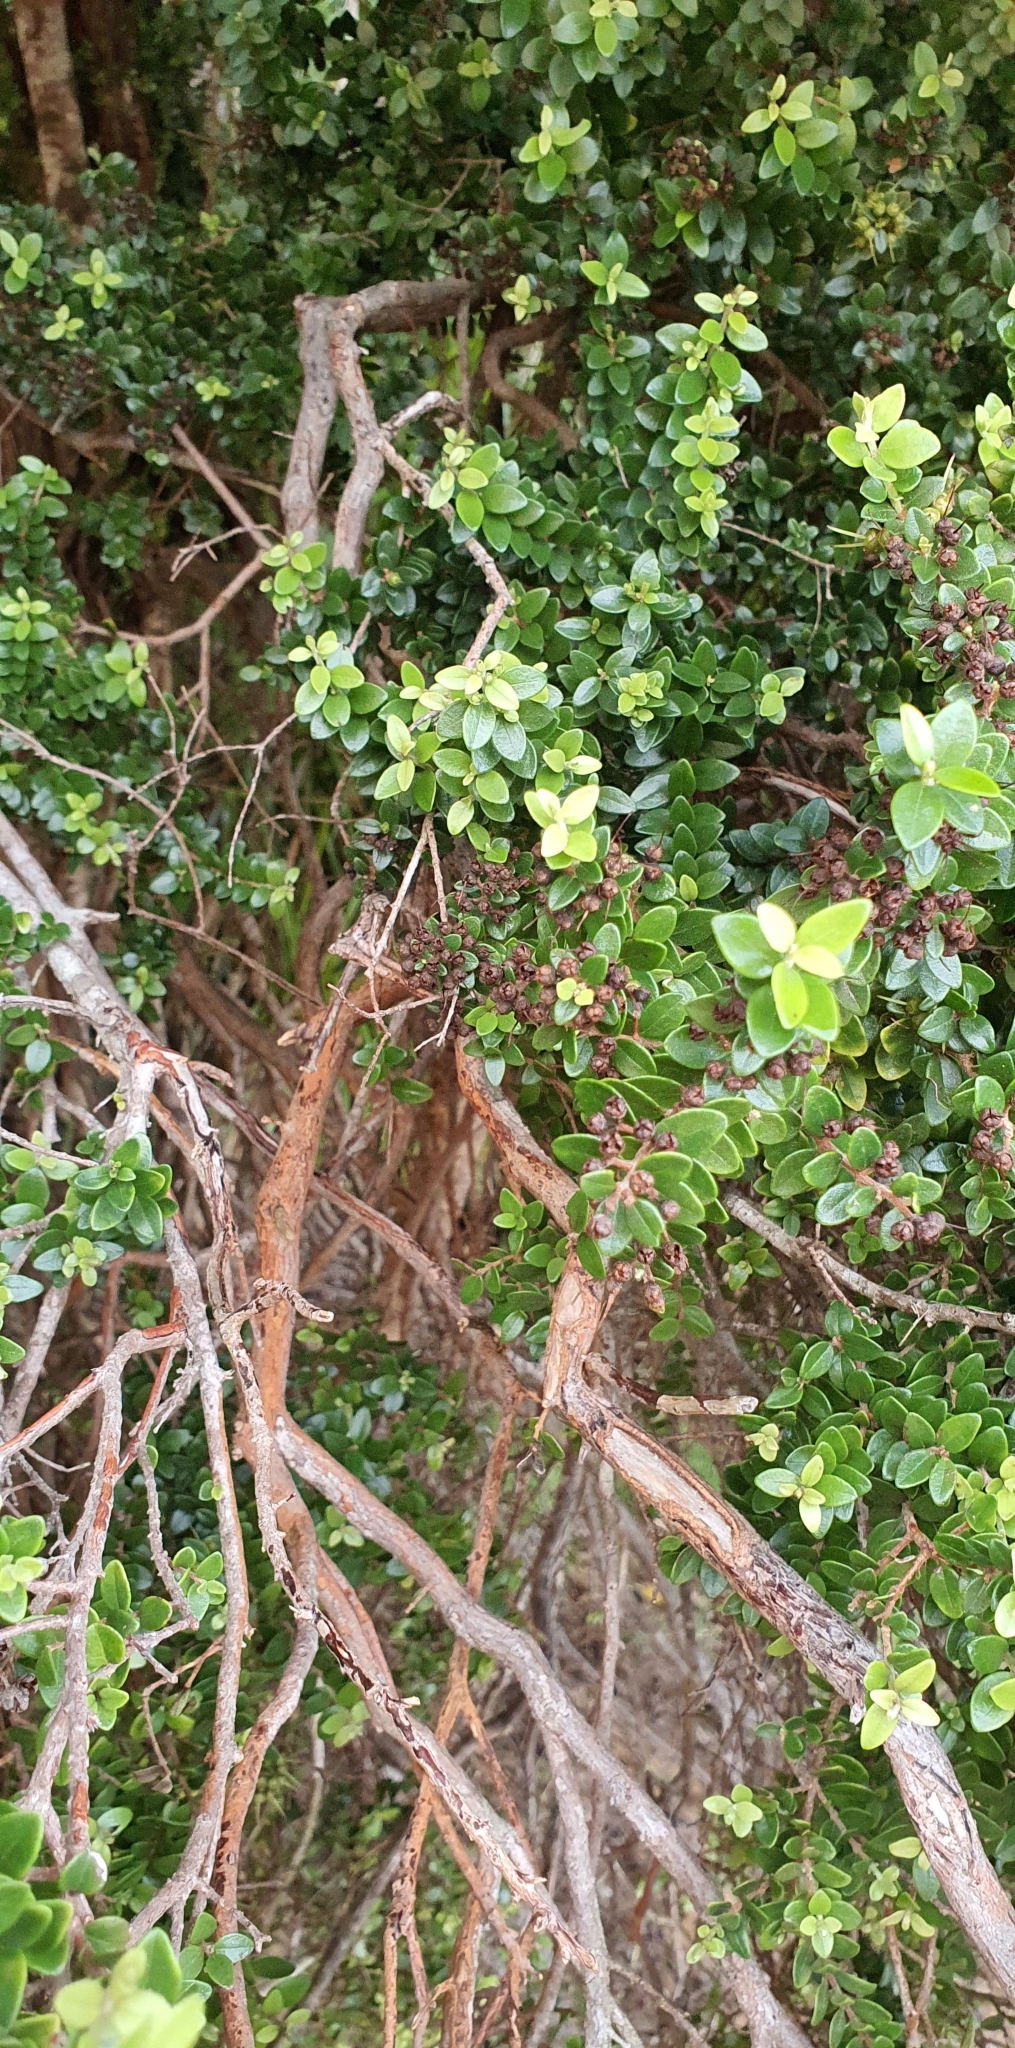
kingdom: Plantae
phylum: Tracheophyta
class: Magnoliopsida
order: Myrtales
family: Myrtaceae
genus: Metrosideros
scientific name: Metrosideros perforata
